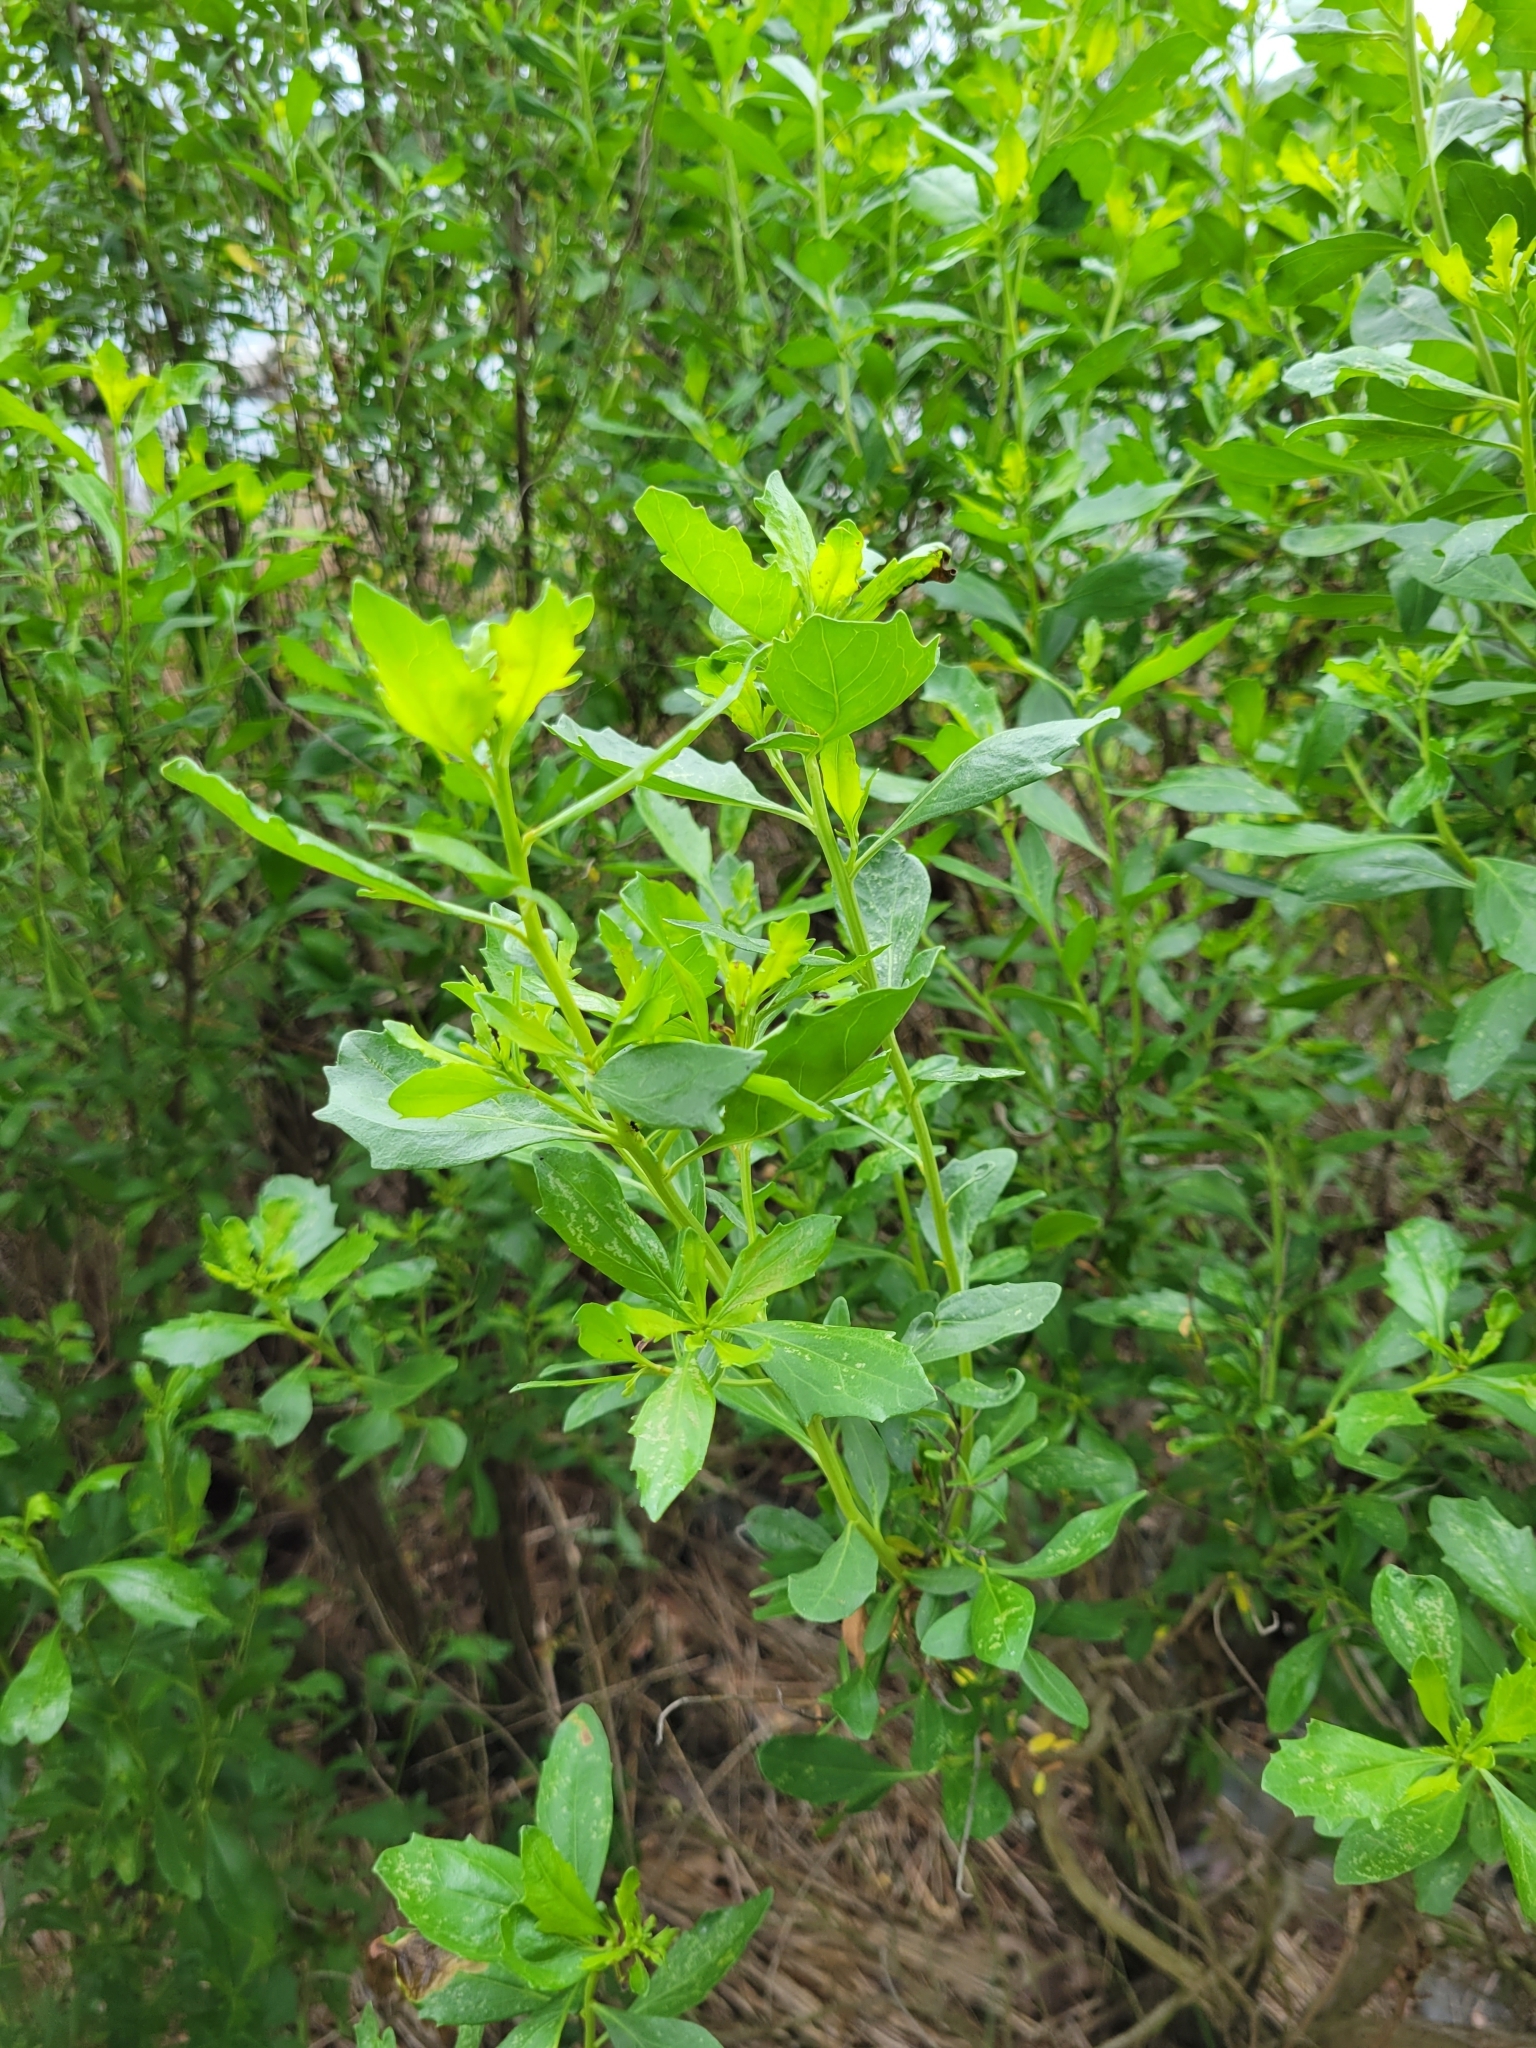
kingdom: Plantae
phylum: Tracheophyta
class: Magnoliopsida
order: Asterales
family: Asteraceae
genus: Baccharis
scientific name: Baccharis halimifolia
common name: Eastern baccharis
